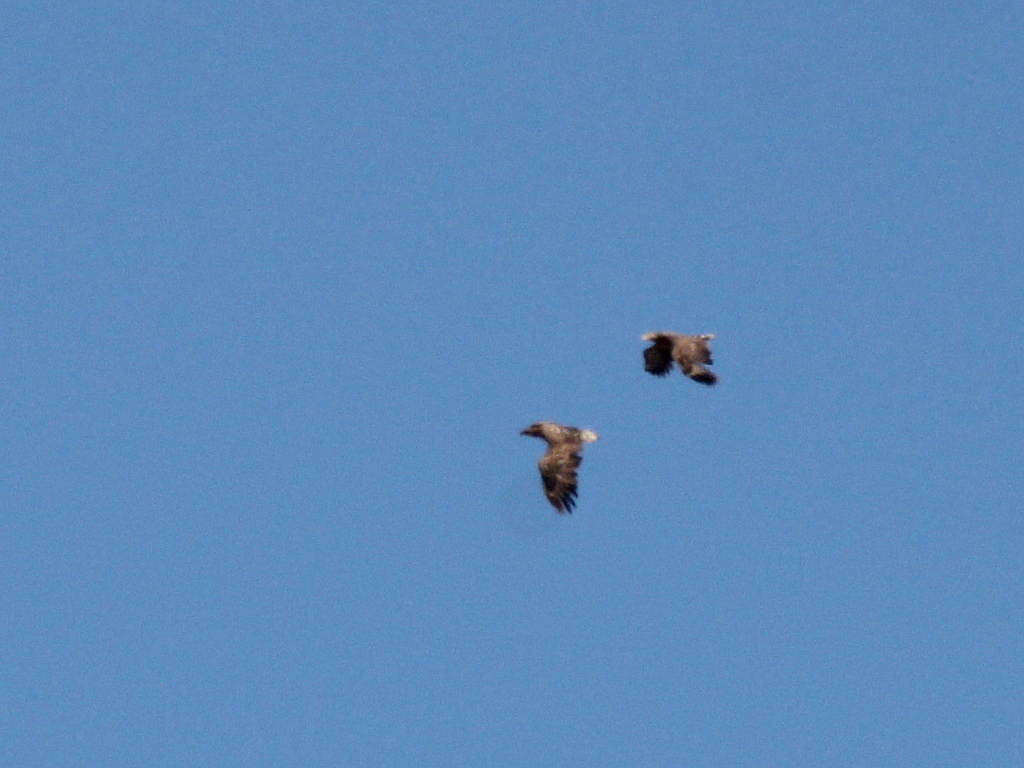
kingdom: Animalia
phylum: Chordata
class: Aves
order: Accipitriformes
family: Accipitridae
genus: Haliaeetus
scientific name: Haliaeetus albicilla
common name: White-tailed eagle
